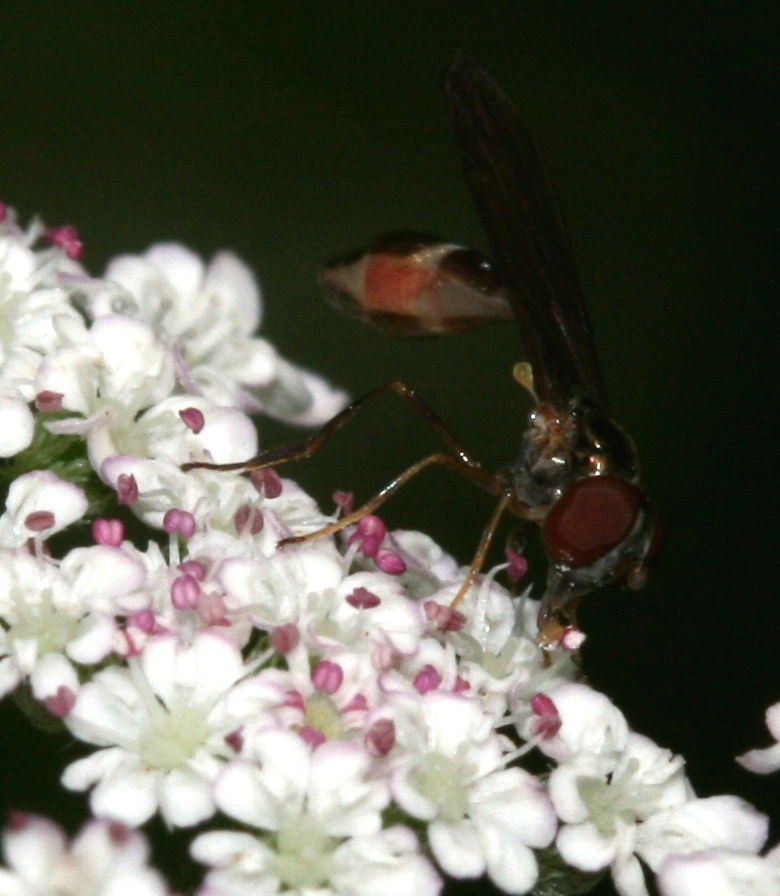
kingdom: Animalia
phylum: Arthropoda
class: Insecta
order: Diptera
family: Syrphidae
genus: Baccha
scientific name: Baccha elongata
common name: Common dainty
